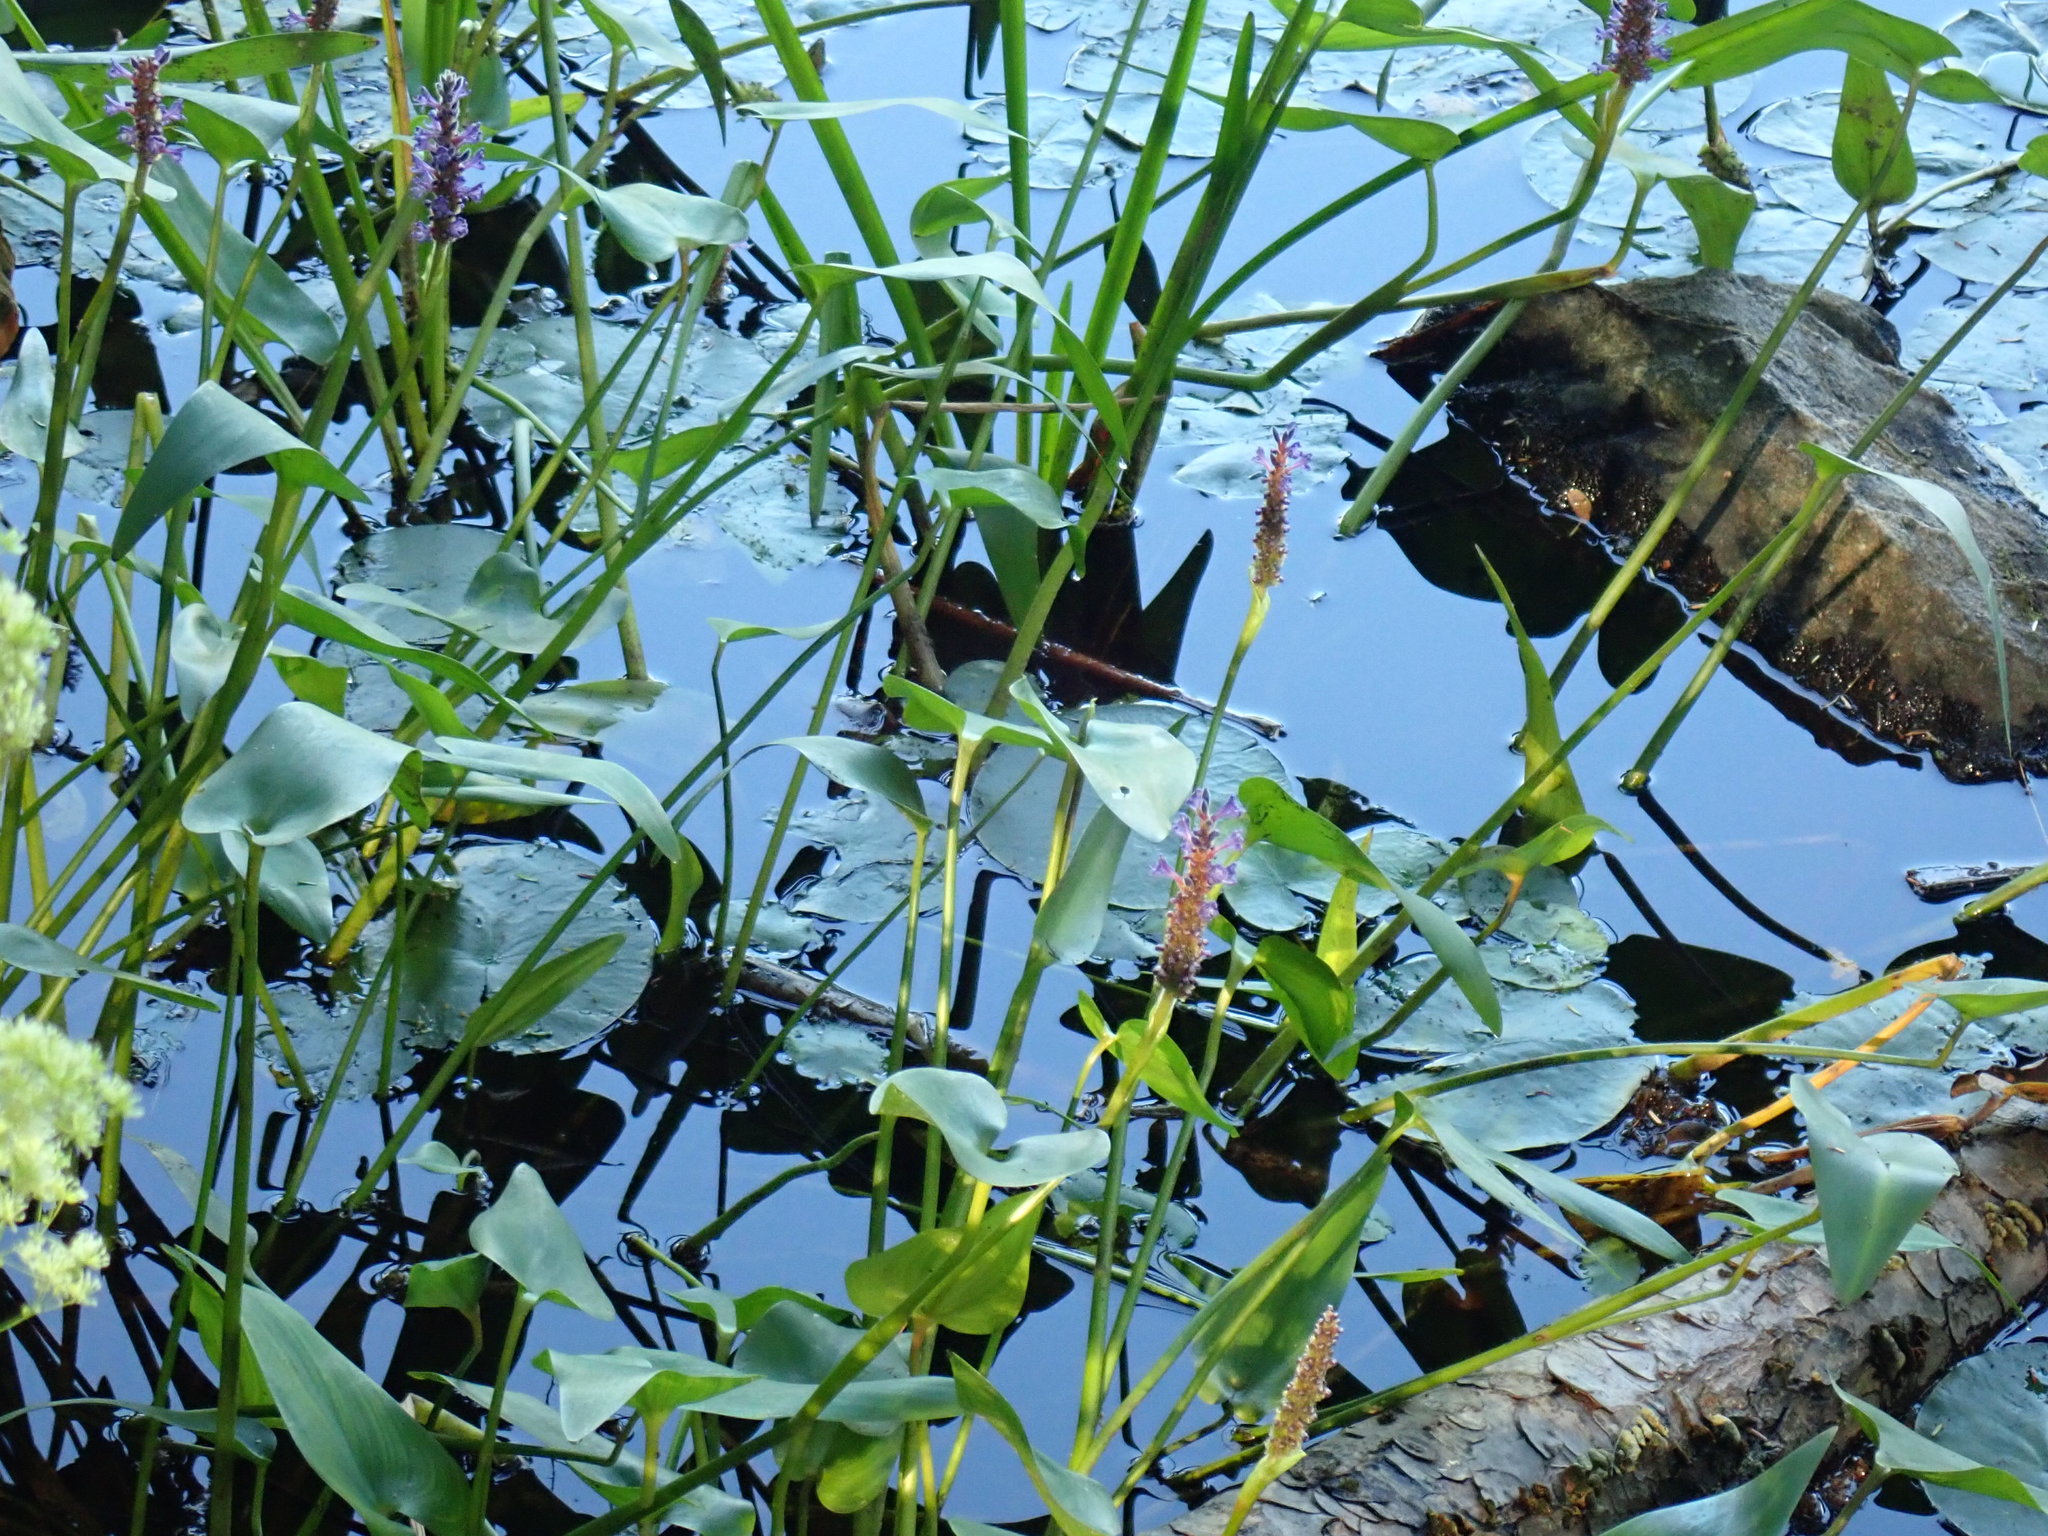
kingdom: Plantae
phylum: Tracheophyta
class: Liliopsida
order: Commelinales
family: Pontederiaceae
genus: Pontederia
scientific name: Pontederia cordata
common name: Pickerelweed
